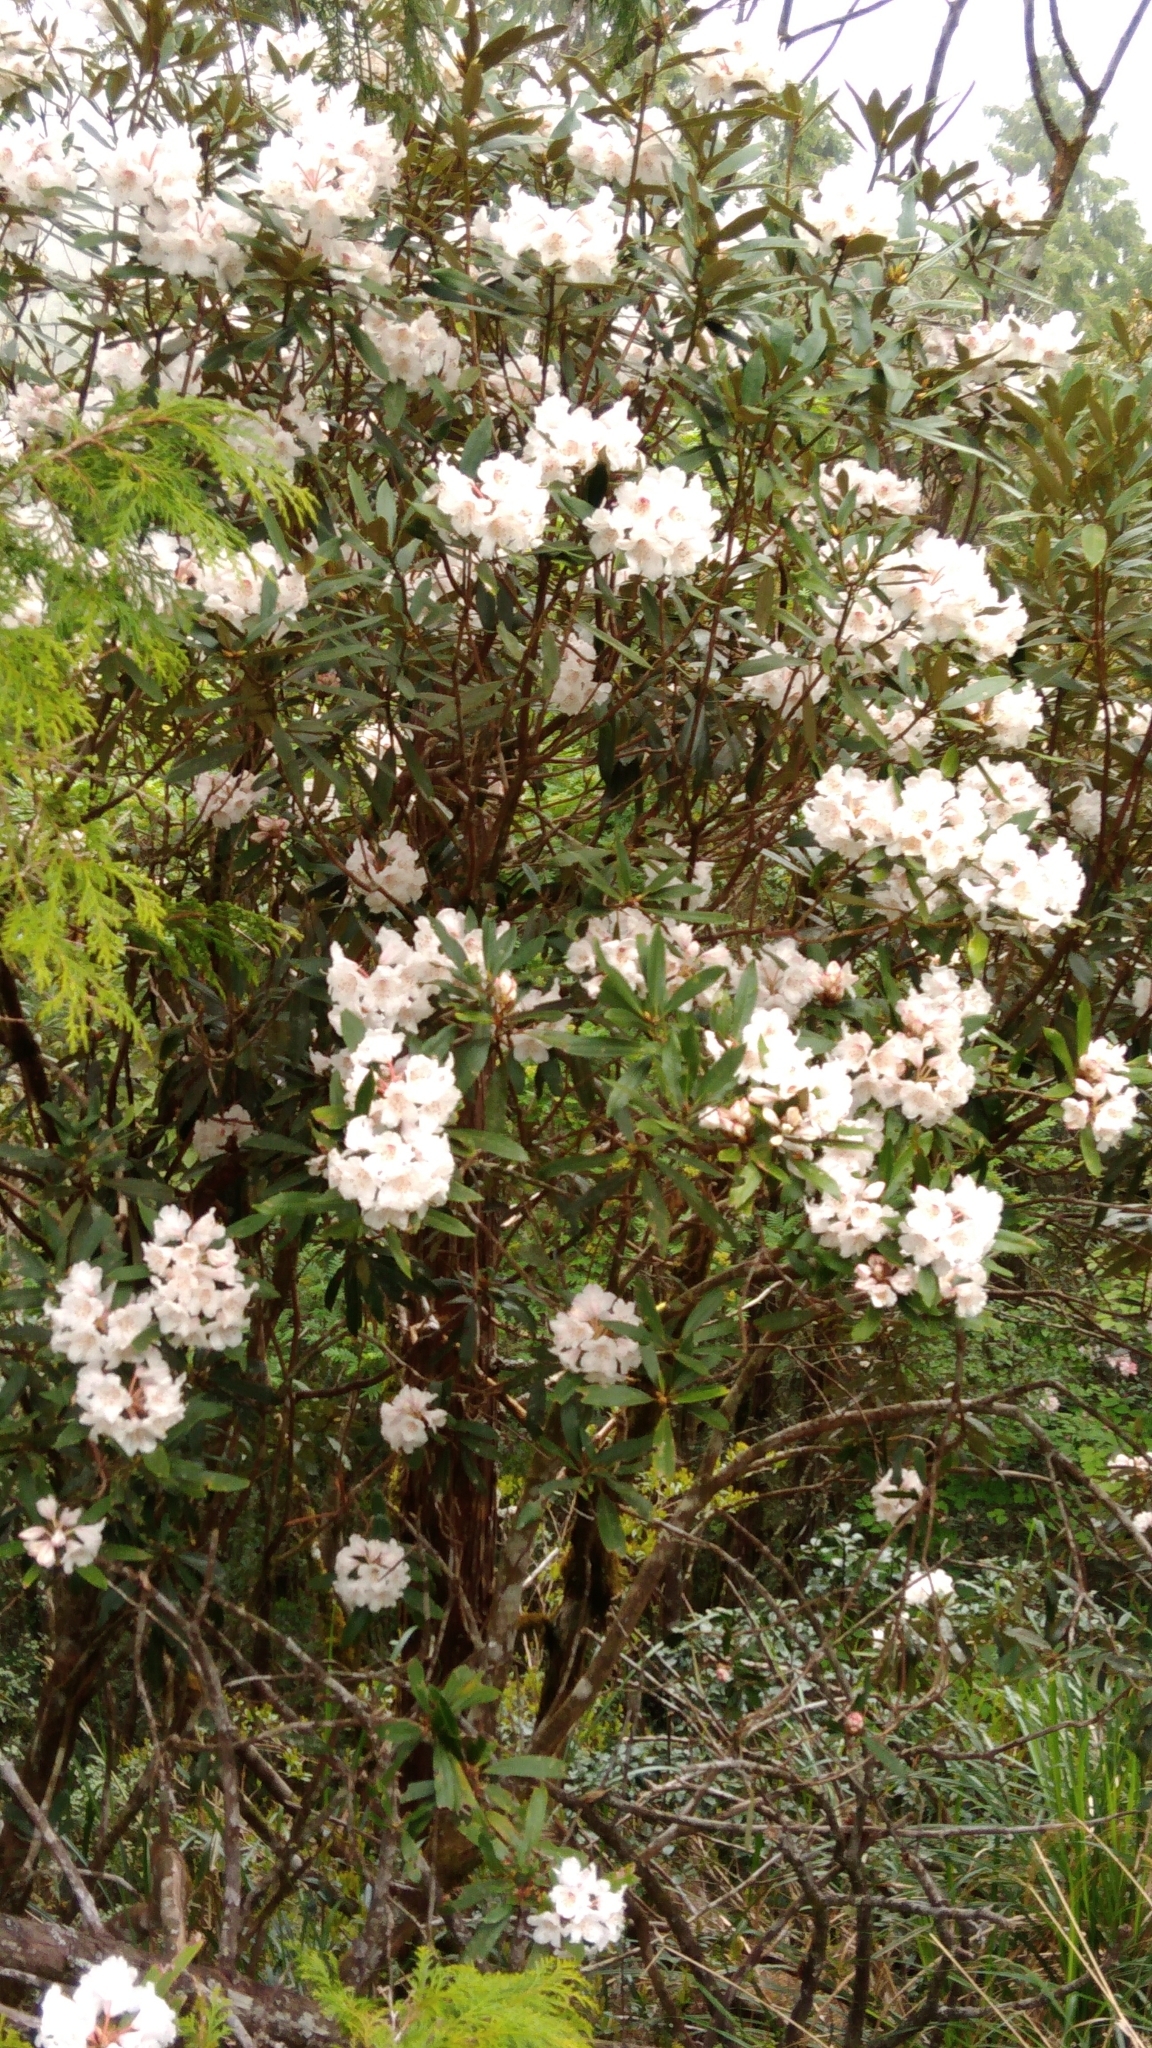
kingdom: Plantae
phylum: Tracheophyta
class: Magnoliopsida
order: Ericales
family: Ericaceae
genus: Rhododendron
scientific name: Rhododendron formosanum
